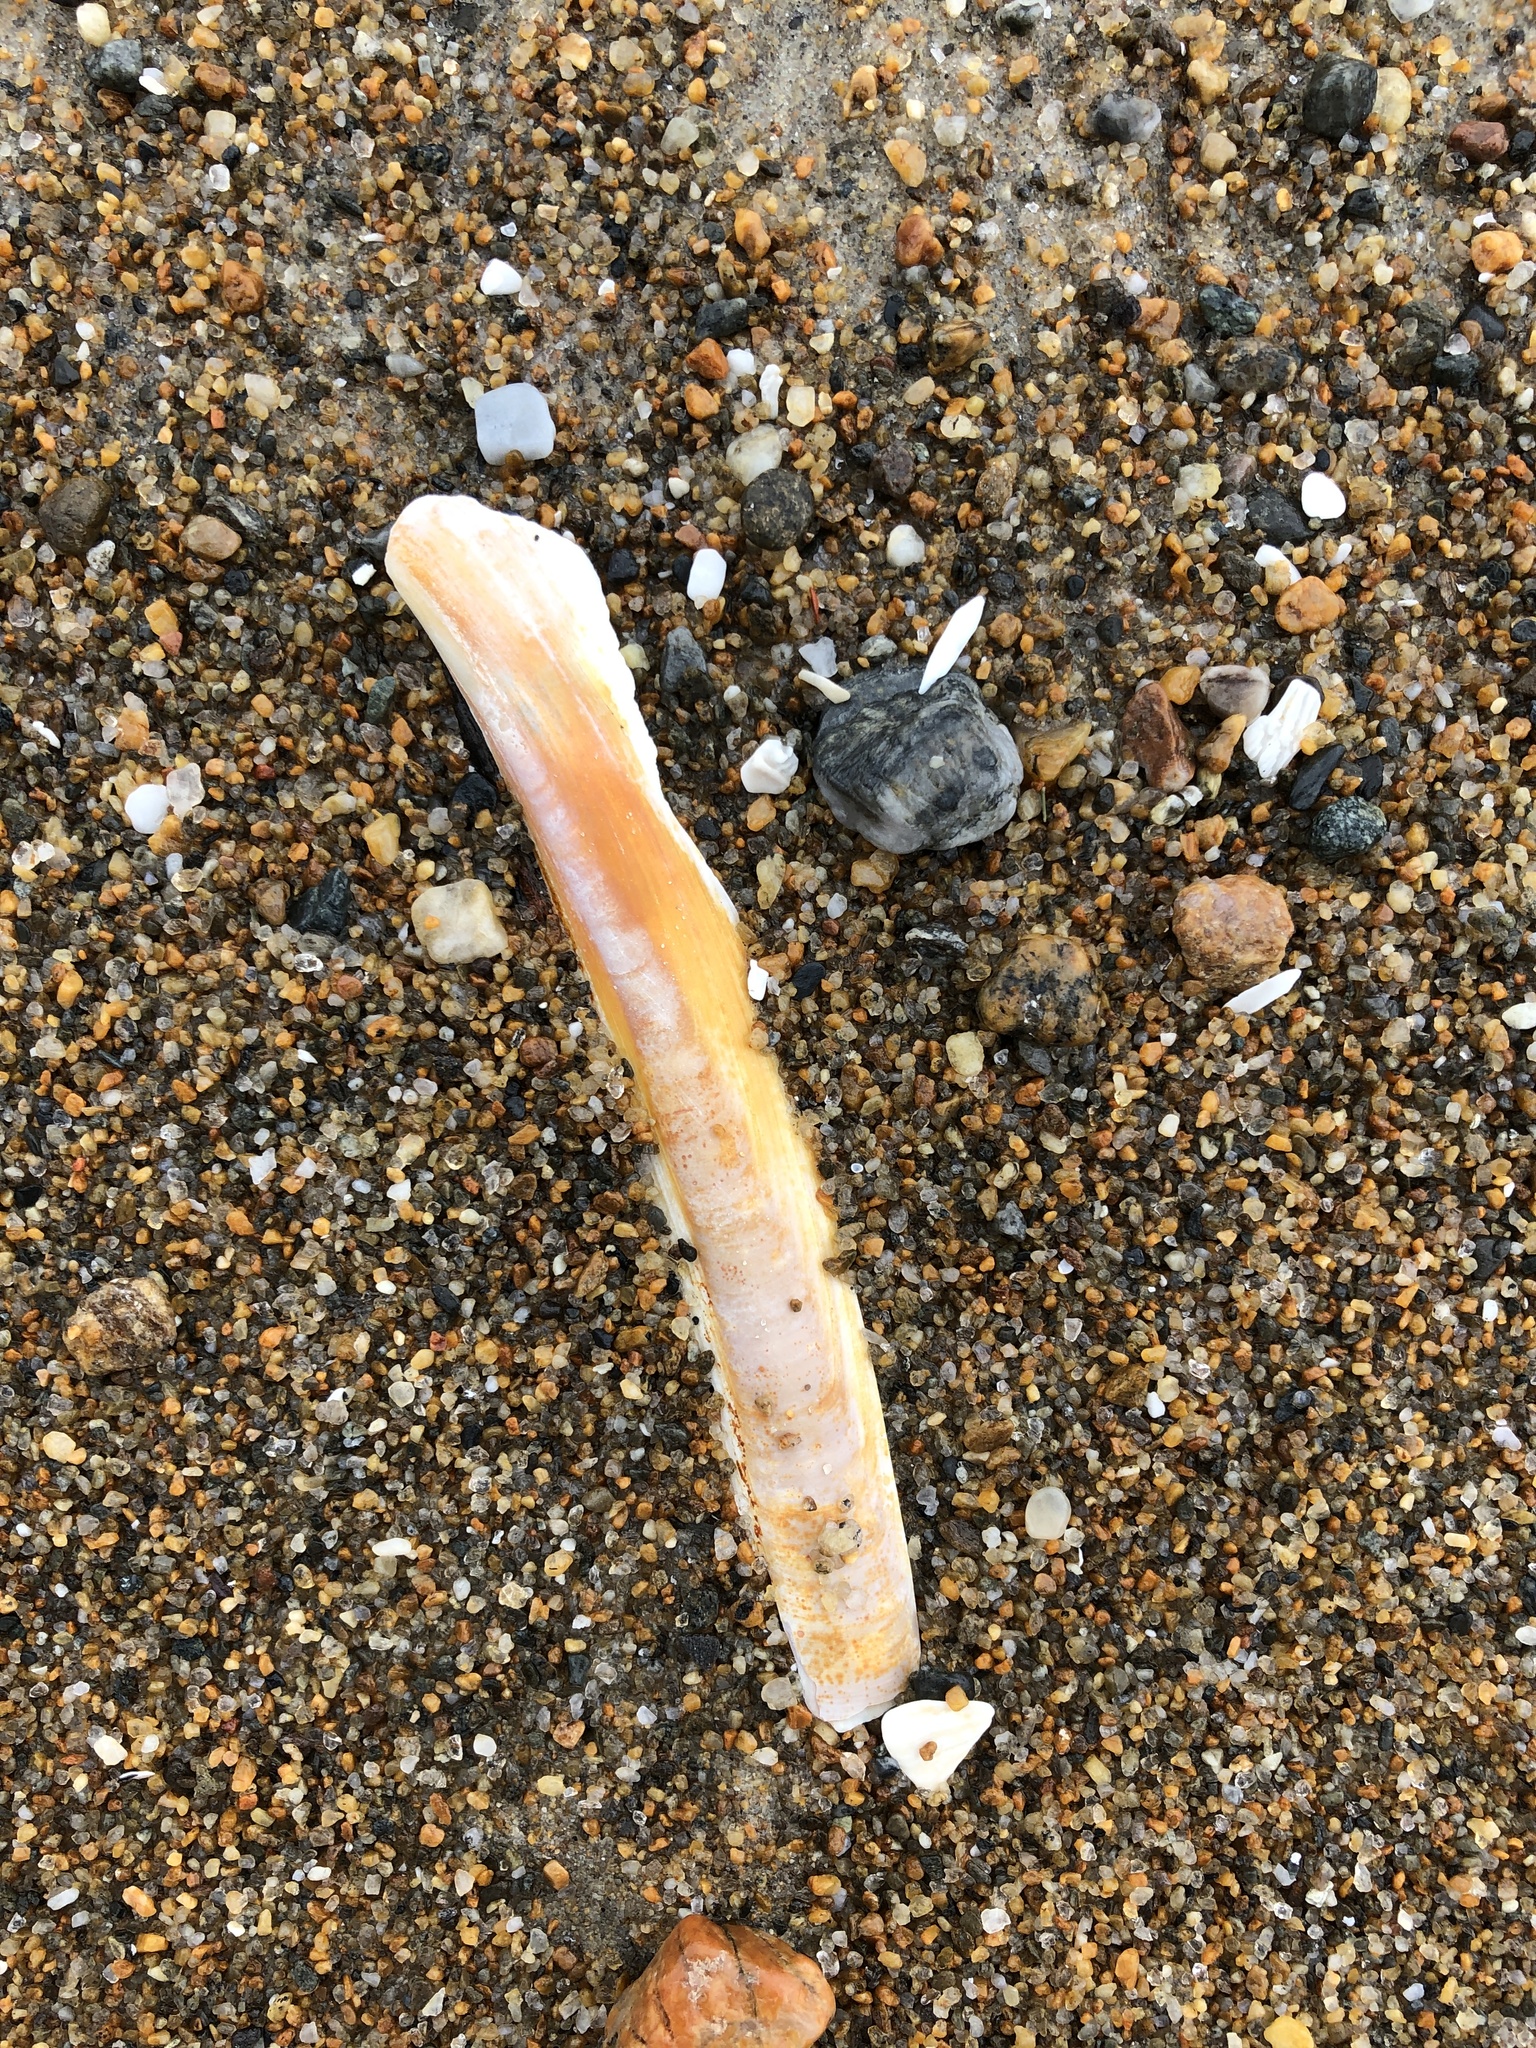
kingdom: Animalia
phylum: Mollusca
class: Bivalvia
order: Adapedonta
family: Pharidae
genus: Ensis
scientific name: Ensis leei
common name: American jack knife clam
